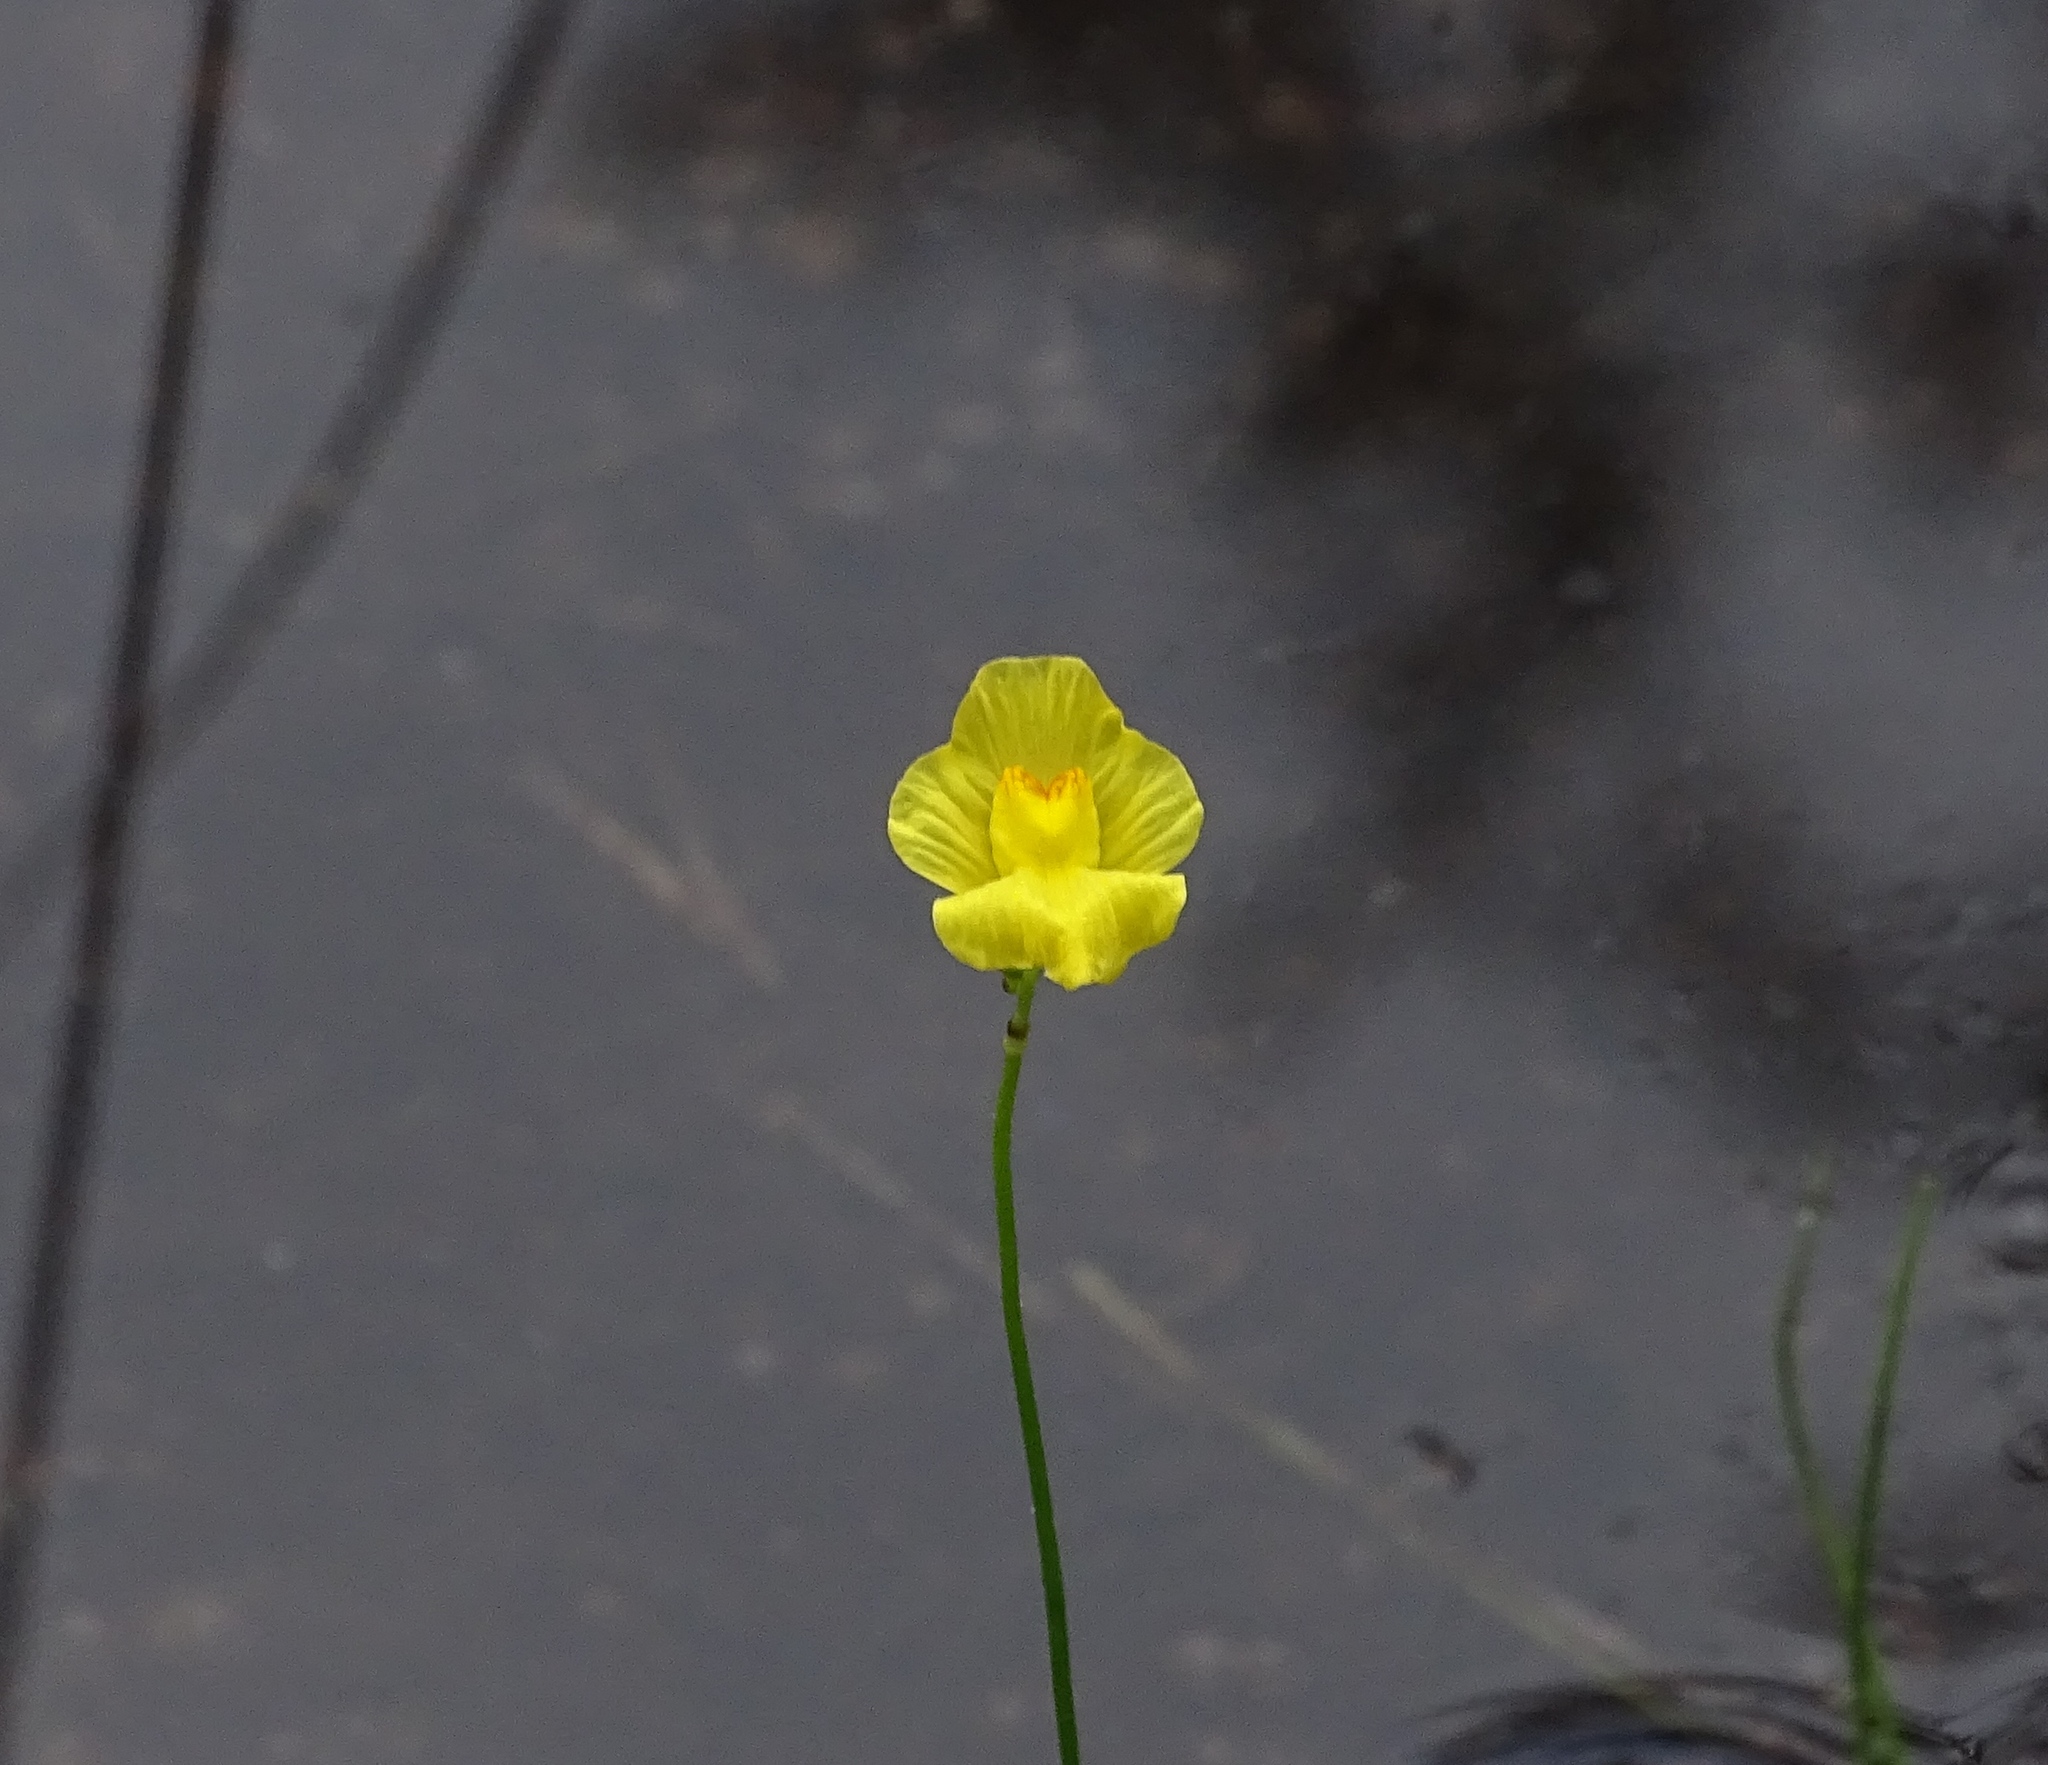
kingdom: Plantae
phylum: Tracheophyta
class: Magnoliopsida
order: Lamiales
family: Lentibulariaceae
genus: Utricularia
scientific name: Utricularia striata
